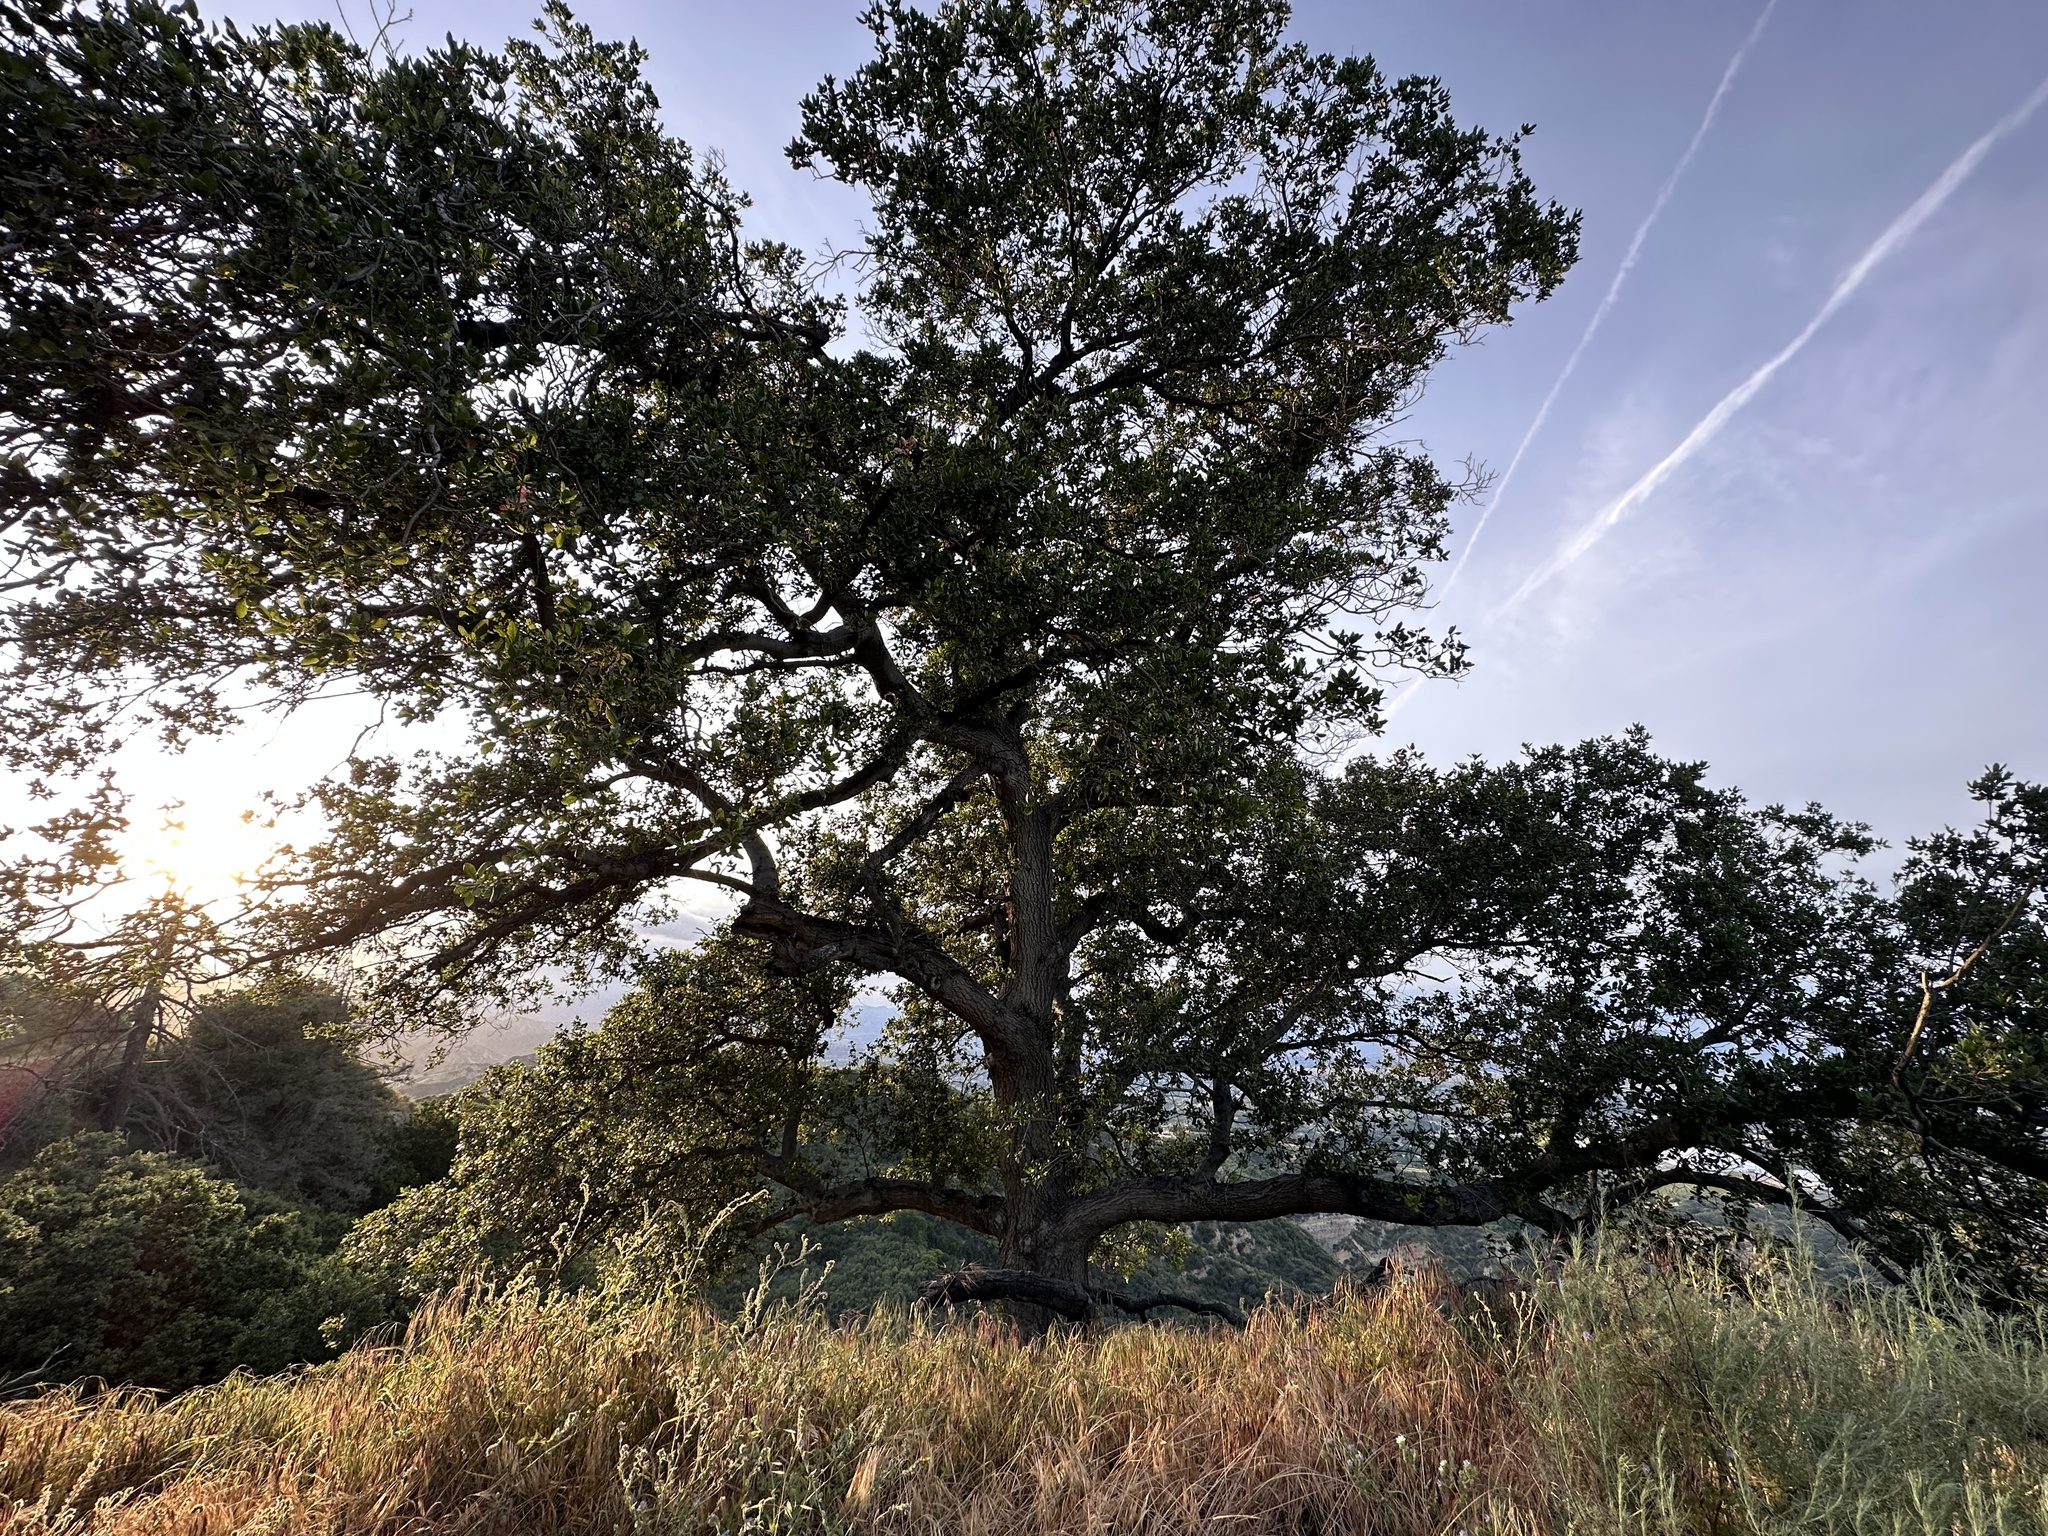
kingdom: Plantae
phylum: Tracheophyta
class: Magnoliopsida
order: Fagales
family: Fagaceae
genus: Quercus
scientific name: Quercus agrifolia
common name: California live oak
